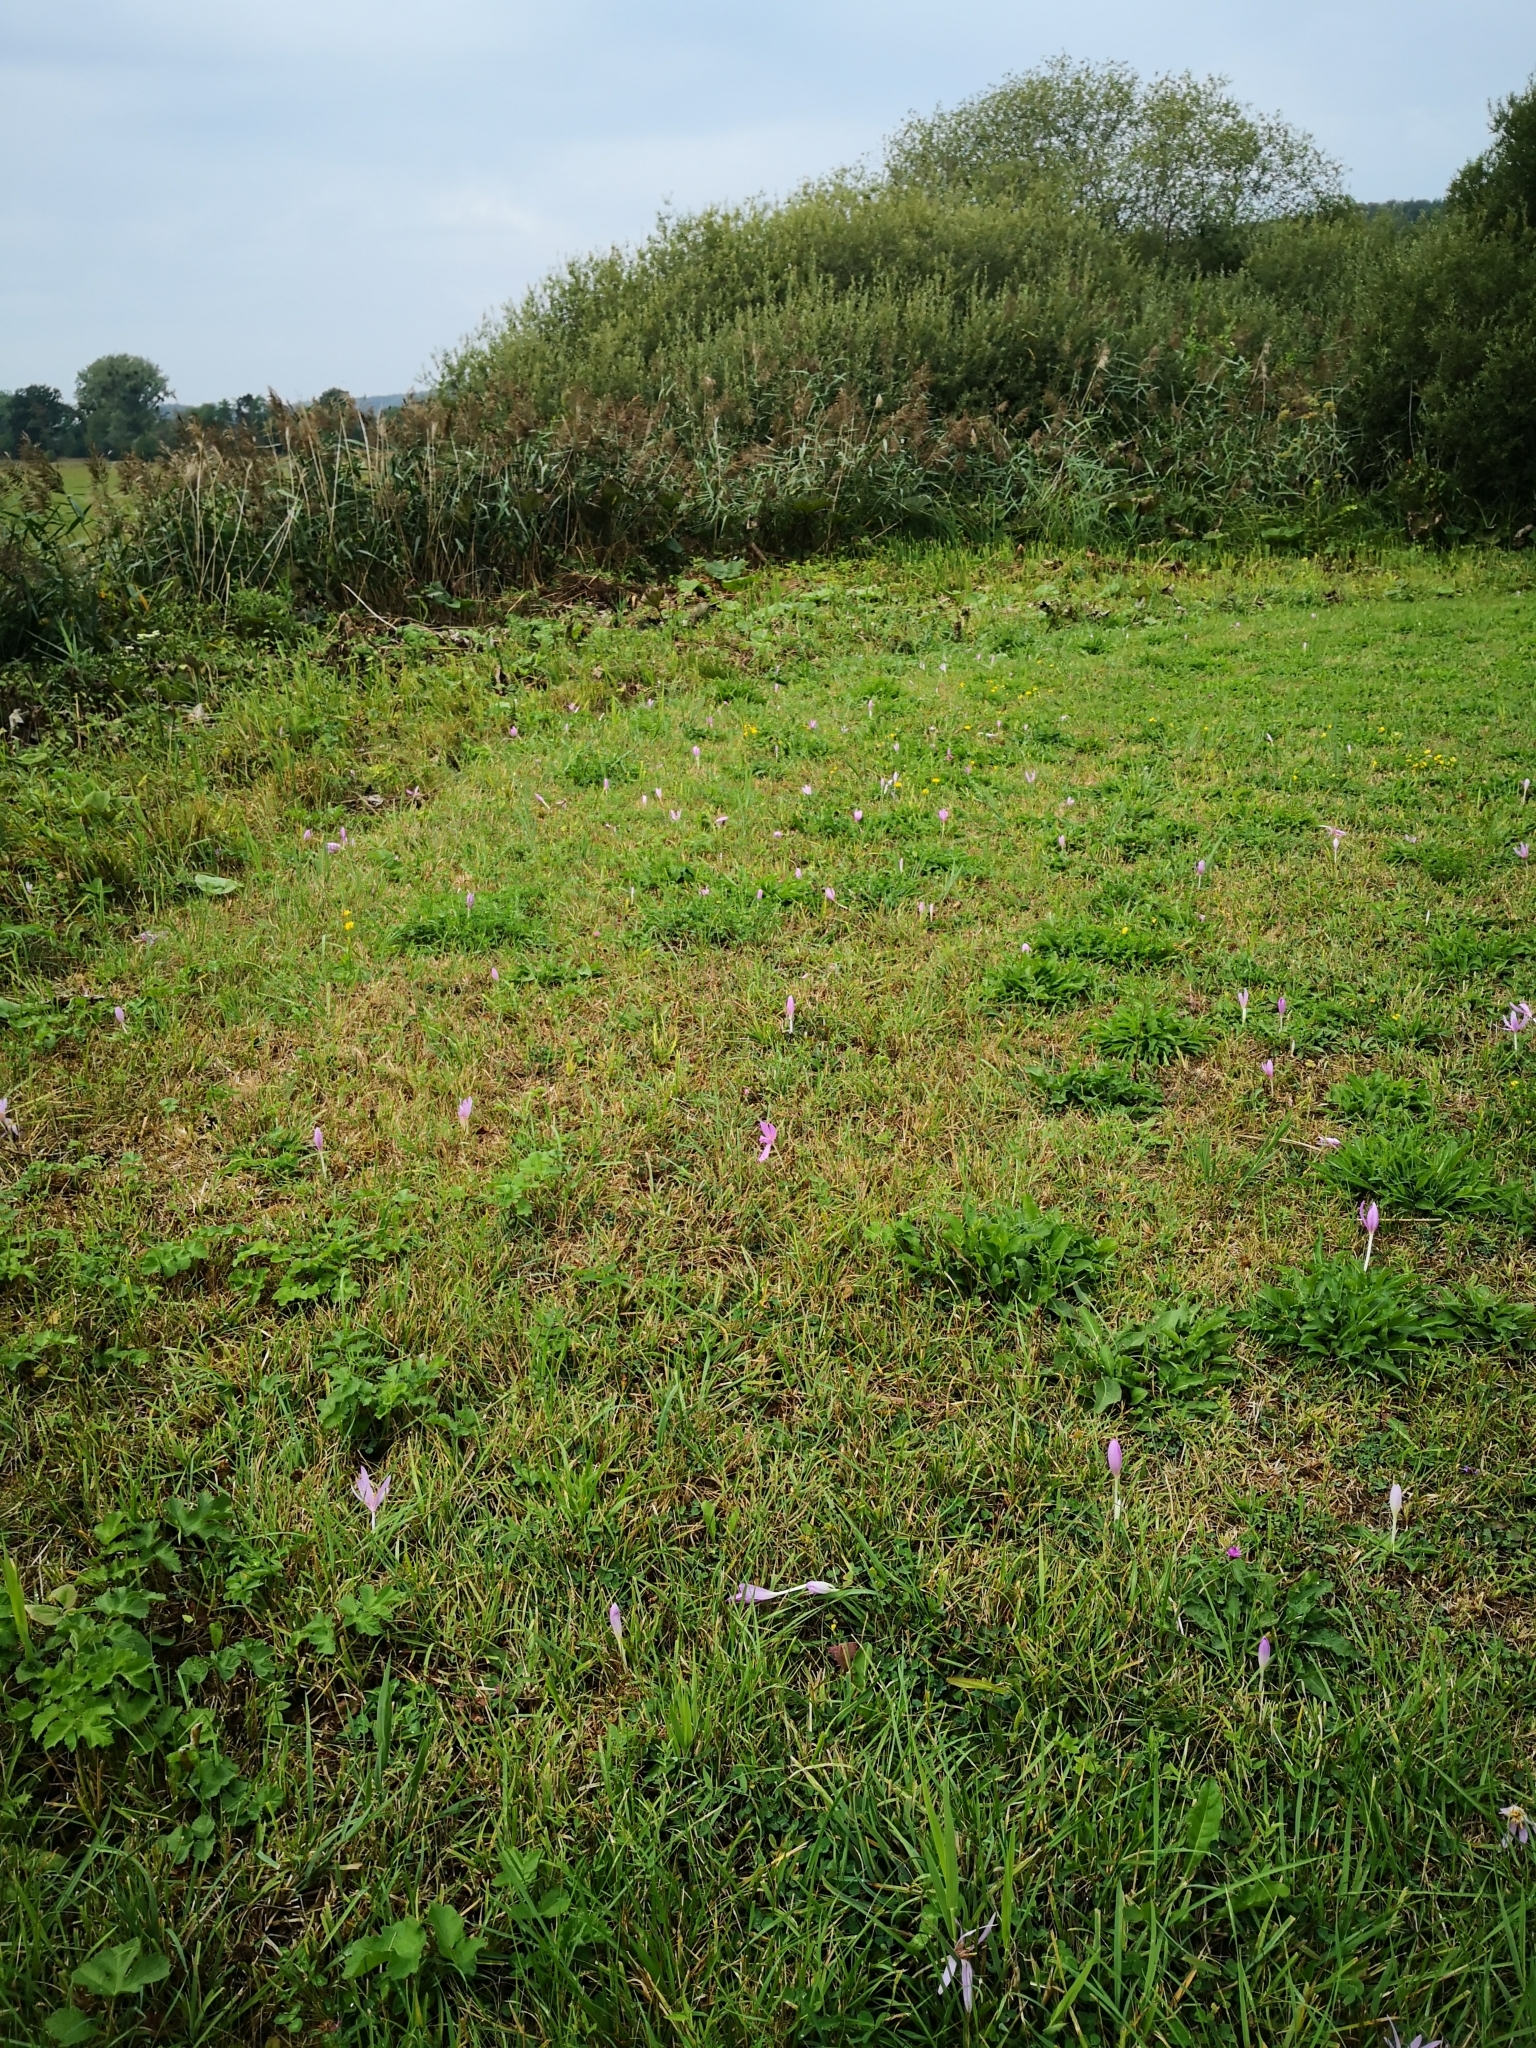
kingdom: Plantae
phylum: Tracheophyta
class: Liliopsida
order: Liliales
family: Colchicaceae
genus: Colchicum
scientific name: Colchicum autumnale
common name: Autumn crocus
